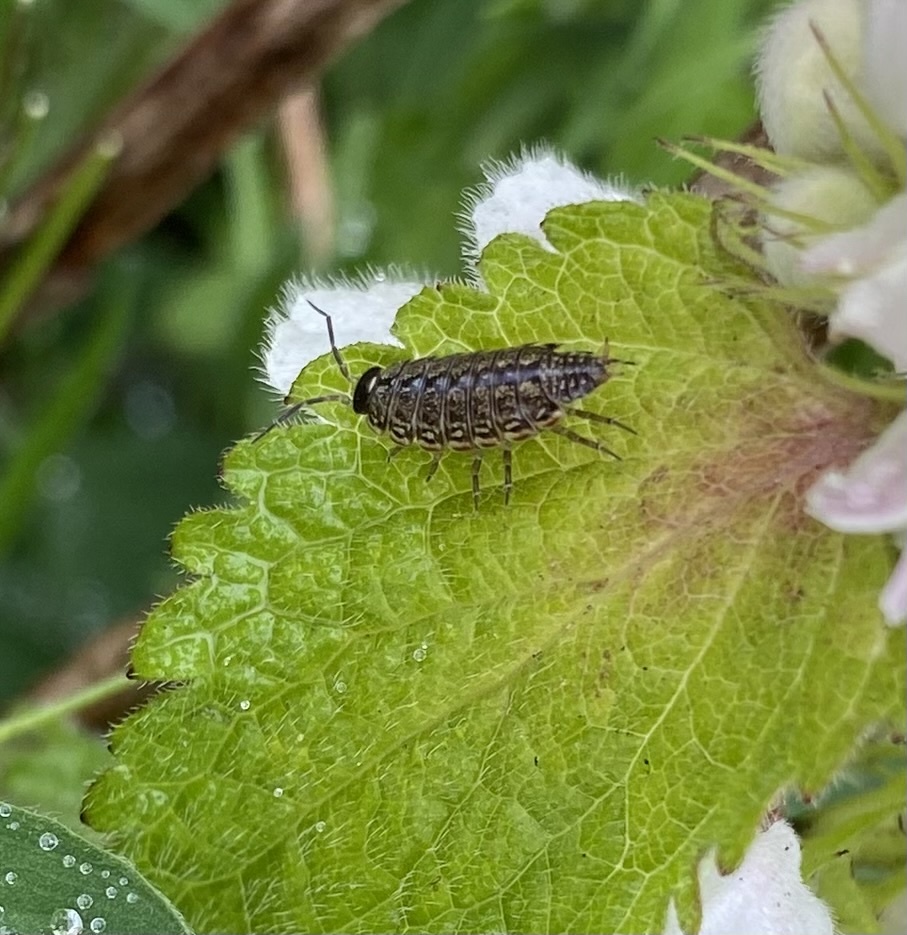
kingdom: Animalia
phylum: Arthropoda
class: Malacostraca
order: Isopoda
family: Philosciidae
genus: Philoscia
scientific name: Philoscia muscorum
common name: Common striped woodlouse
